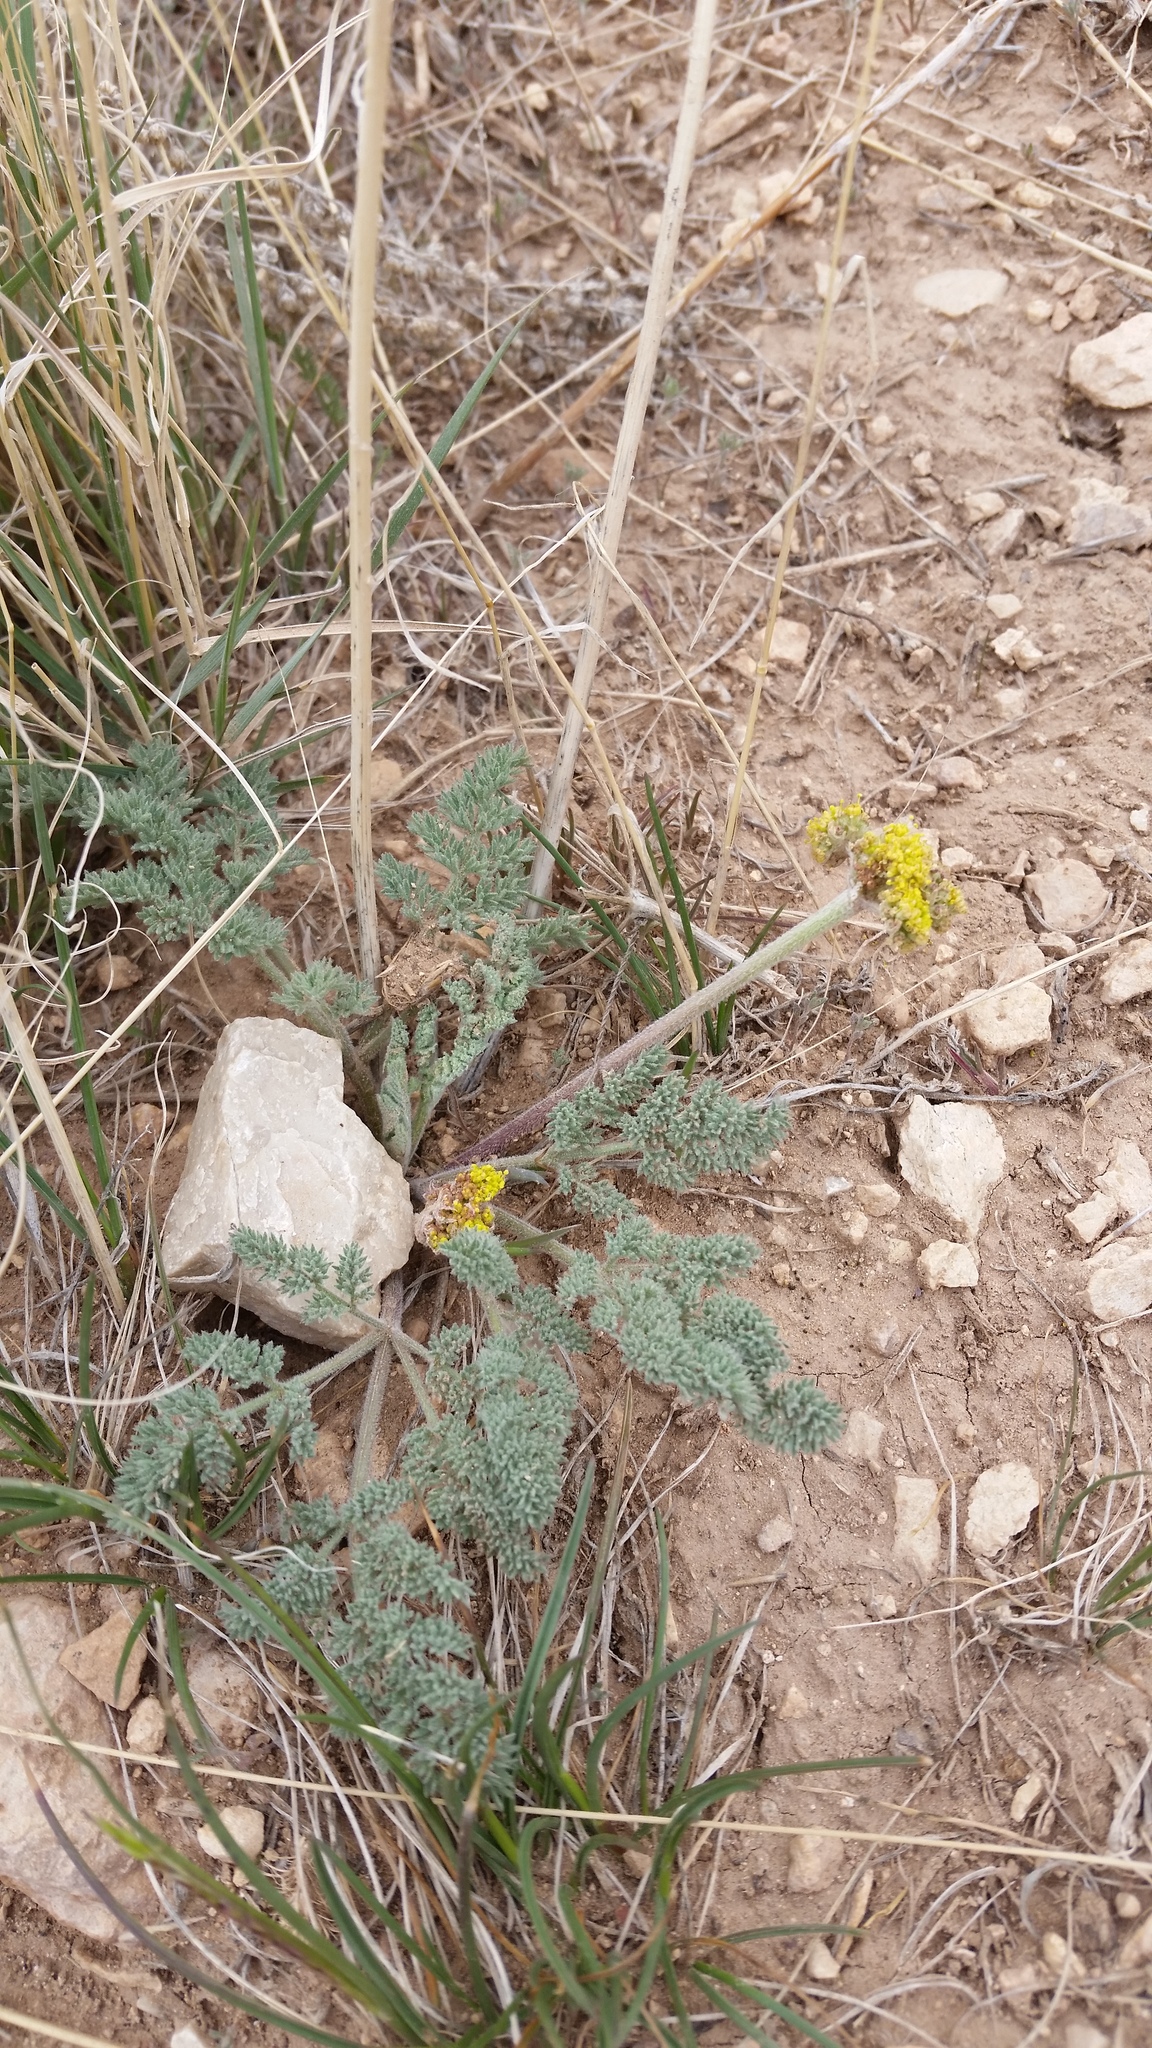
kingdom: Plantae
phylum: Tracheophyta
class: Magnoliopsida
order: Apiales
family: Apiaceae
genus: Lomatium
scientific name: Lomatium foeniculaceum
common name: Desert-parsley
